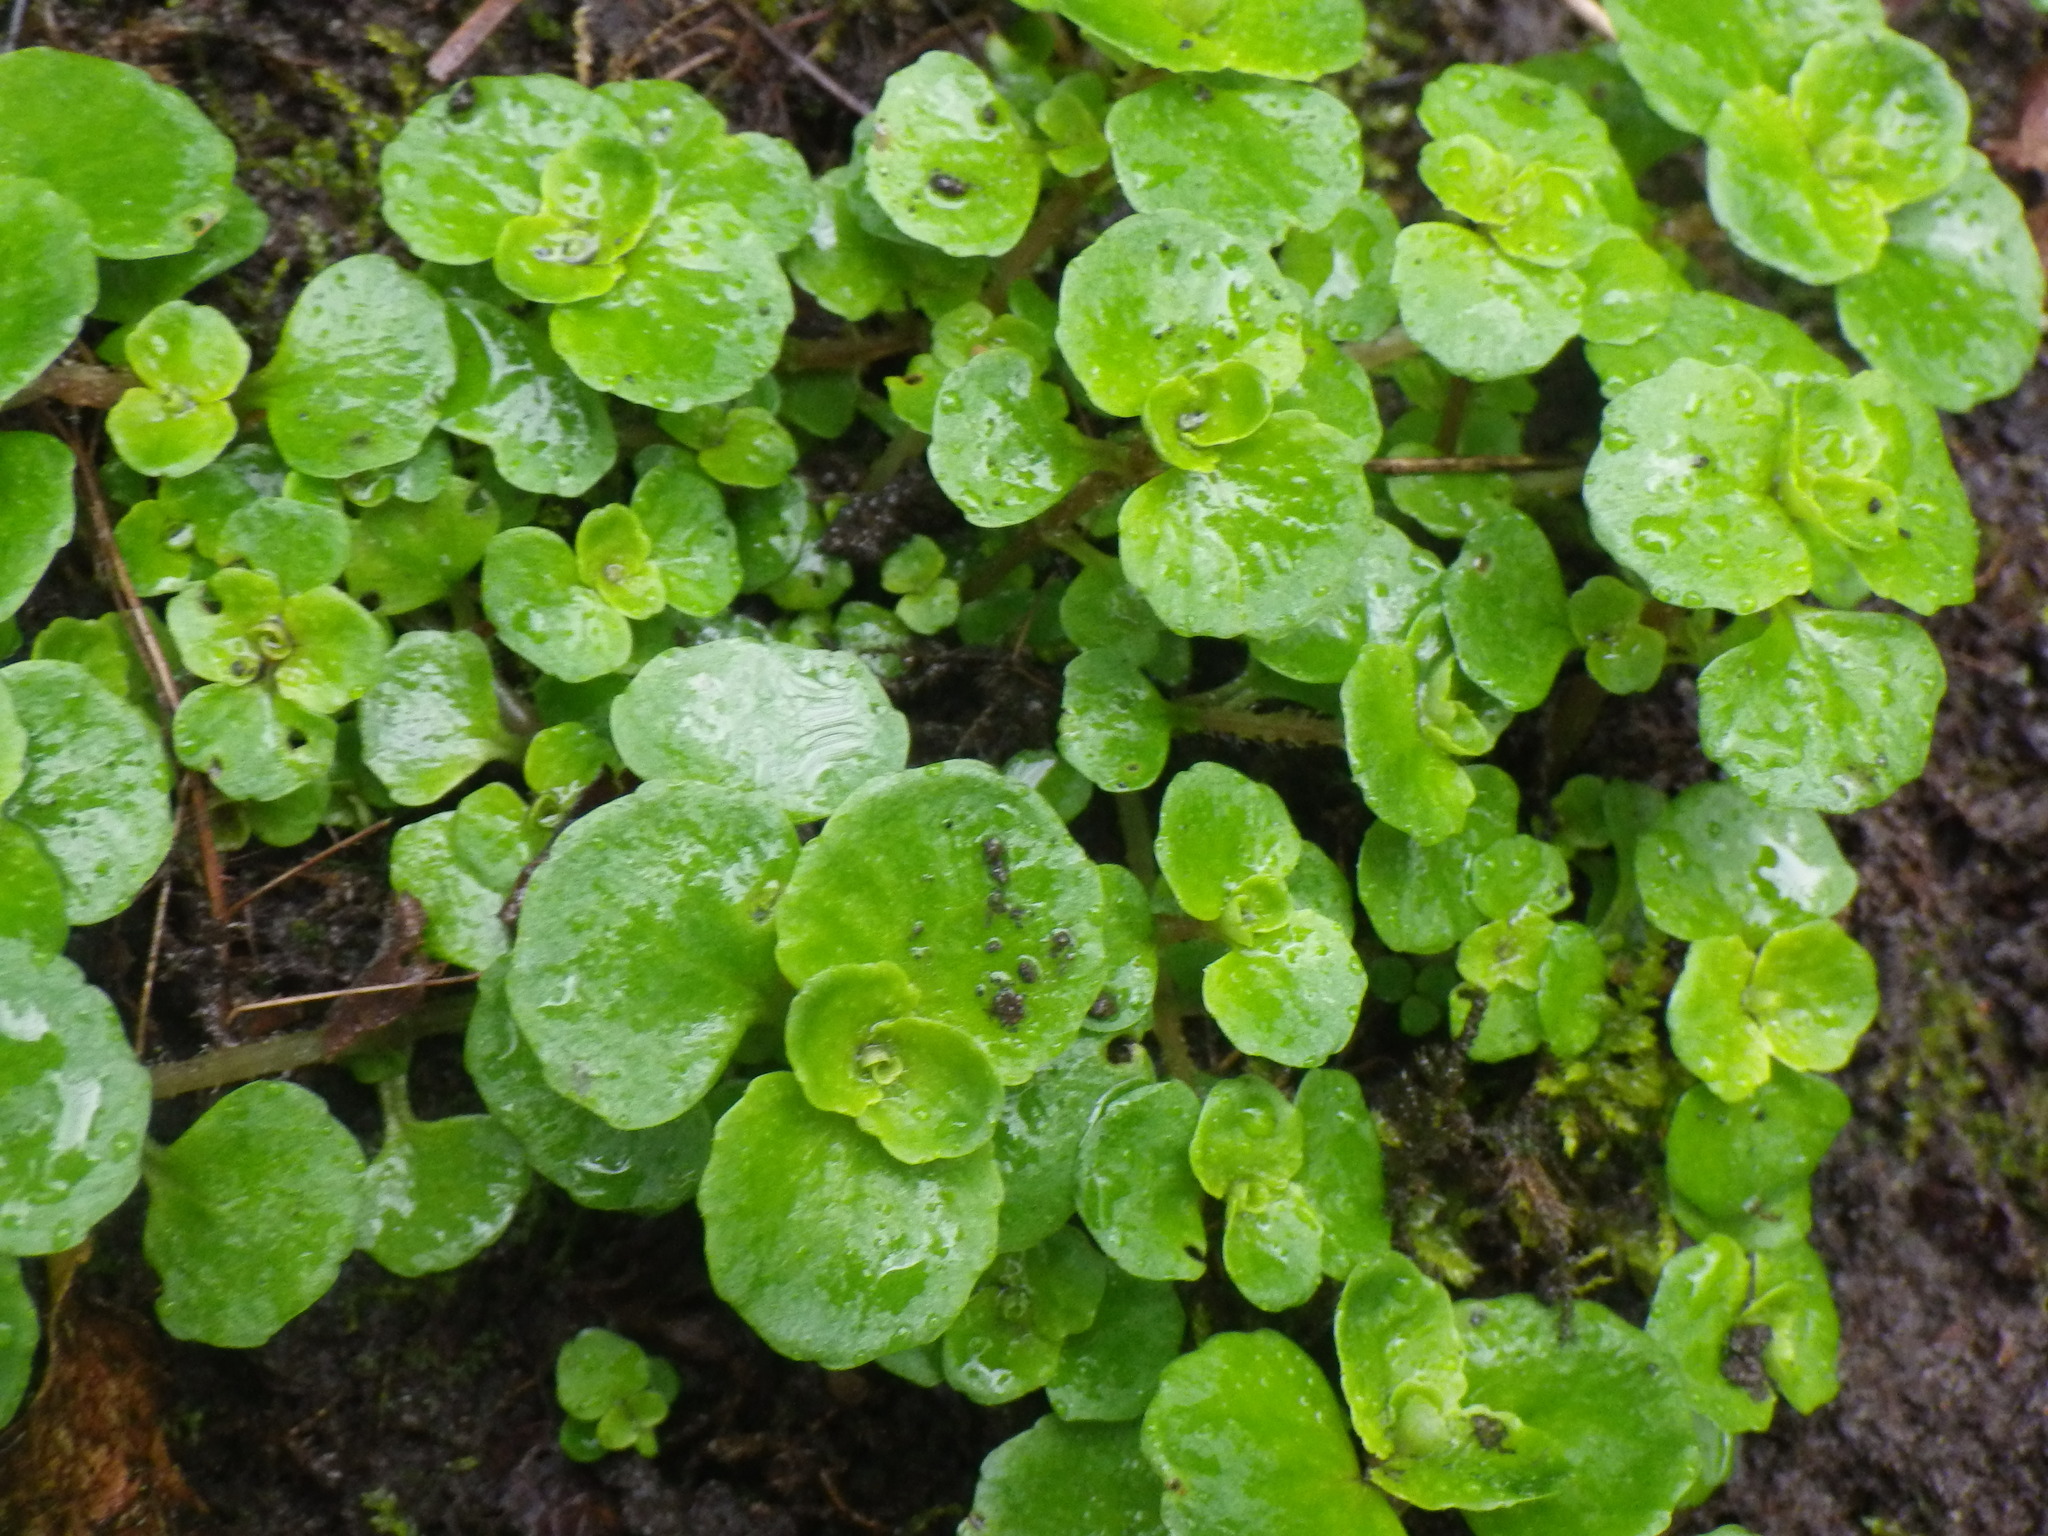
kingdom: Plantae
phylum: Tracheophyta
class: Magnoliopsida
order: Saxifragales
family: Saxifragaceae
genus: Chrysosplenium
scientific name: Chrysosplenium oppositifolium
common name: Opposite-leaved golden-saxifrage
